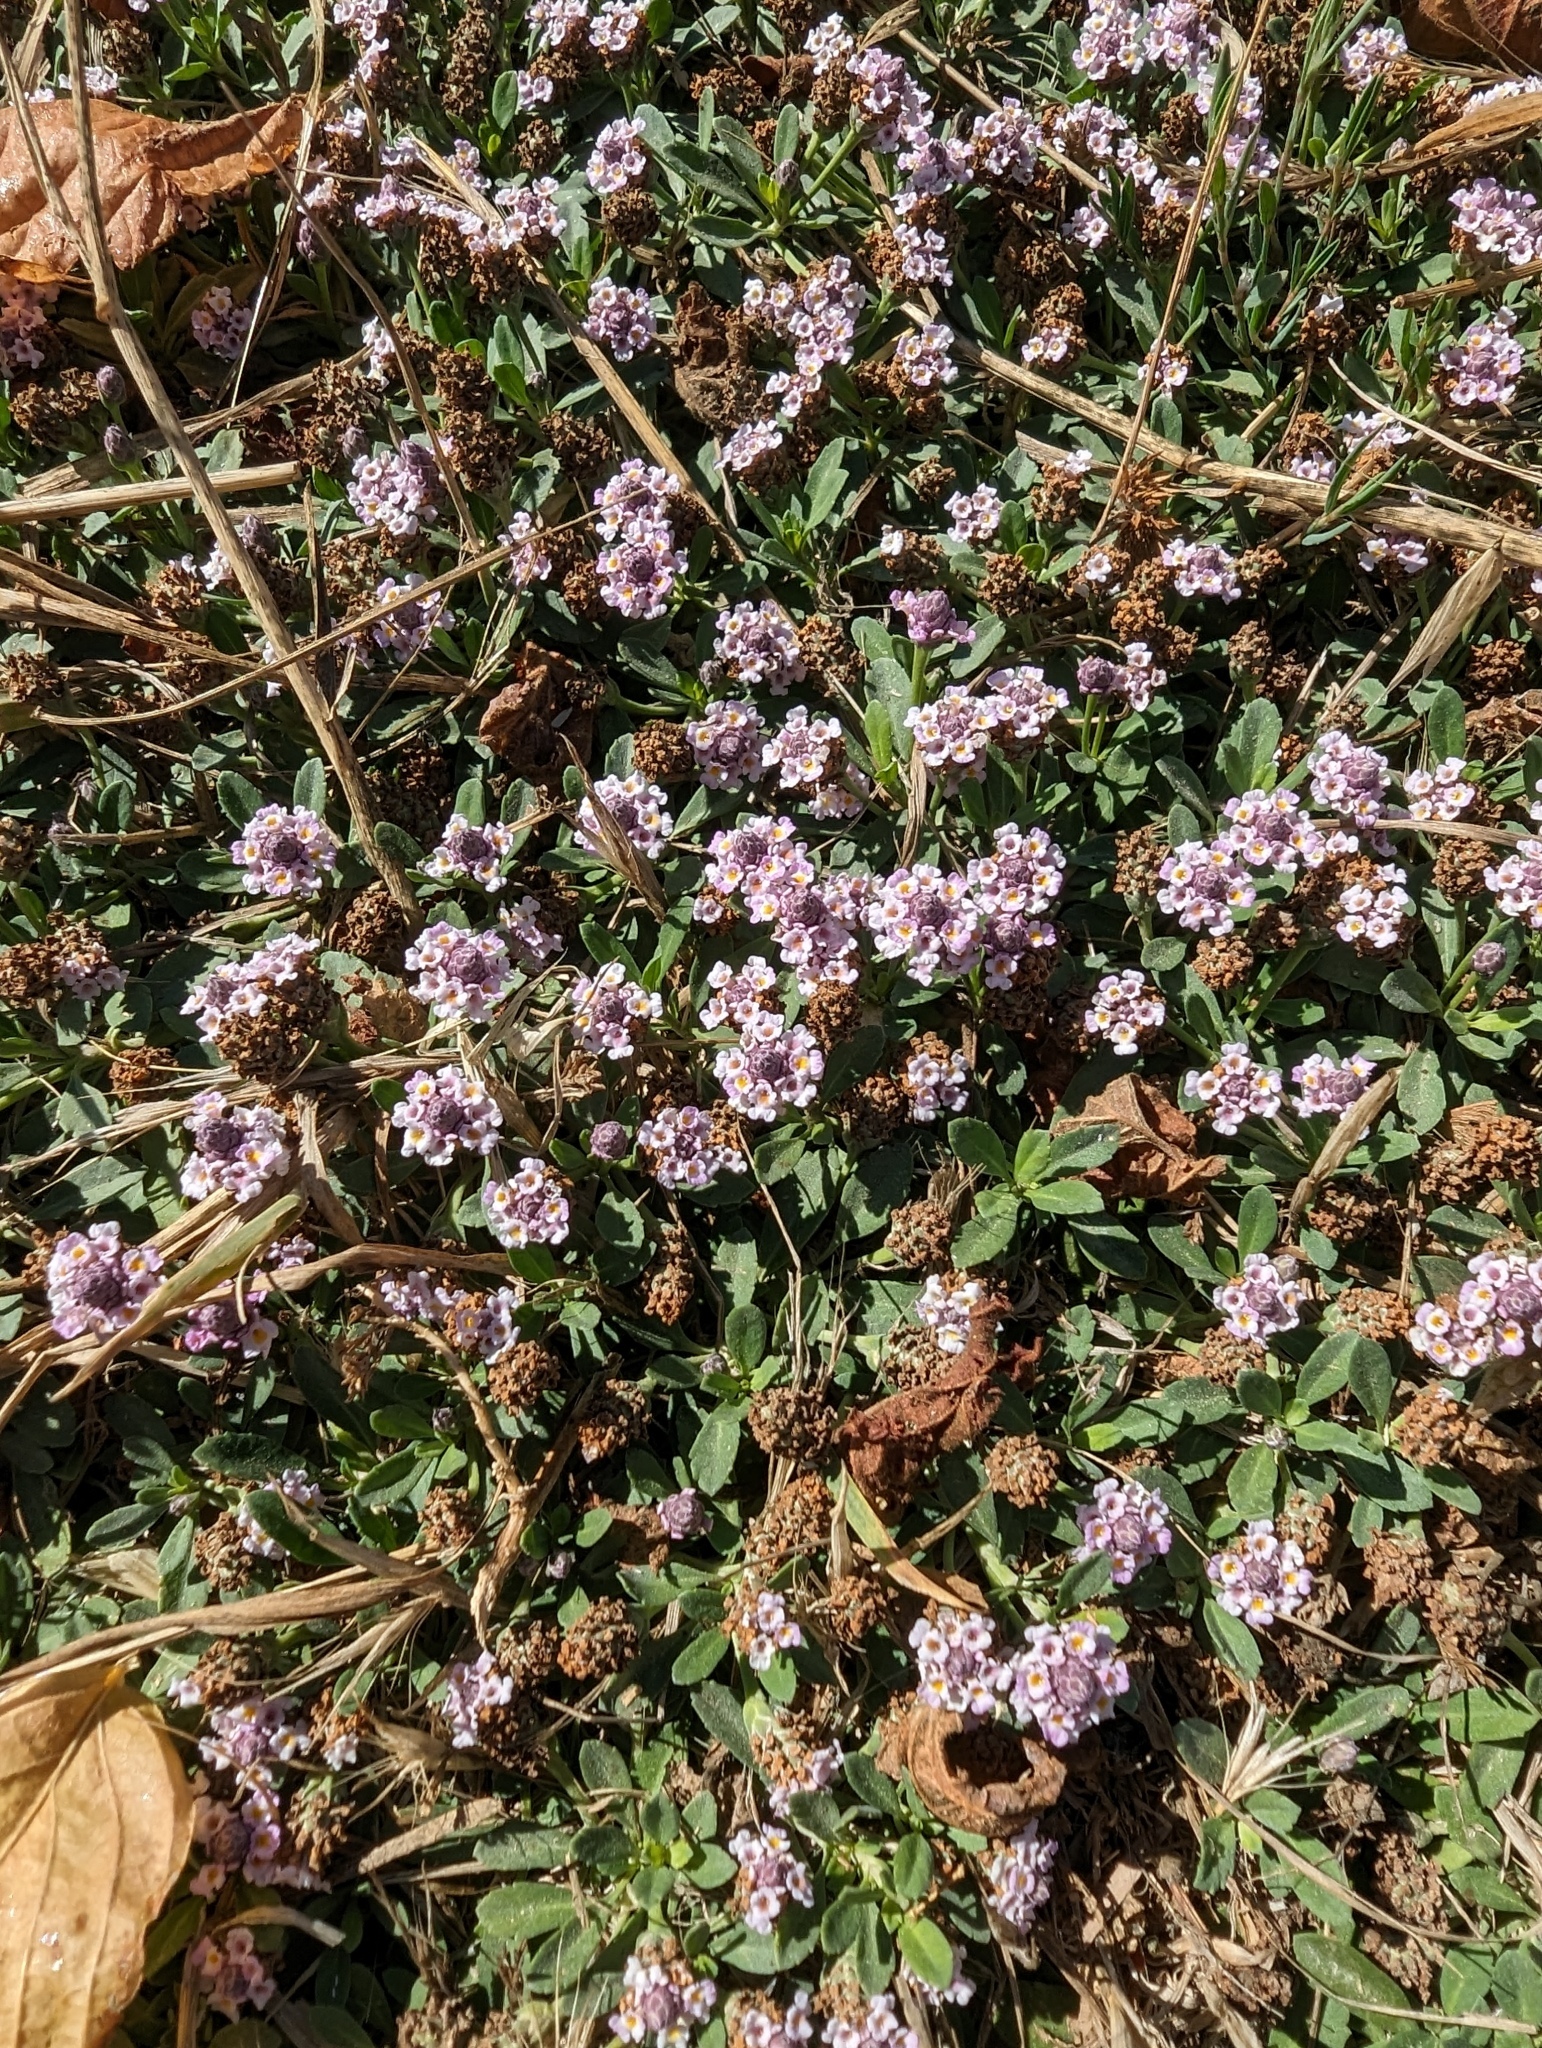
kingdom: Plantae
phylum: Tracheophyta
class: Magnoliopsida
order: Lamiales
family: Verbenaceae
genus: Phyla
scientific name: Phyla nodiflora
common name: Frogfruit
